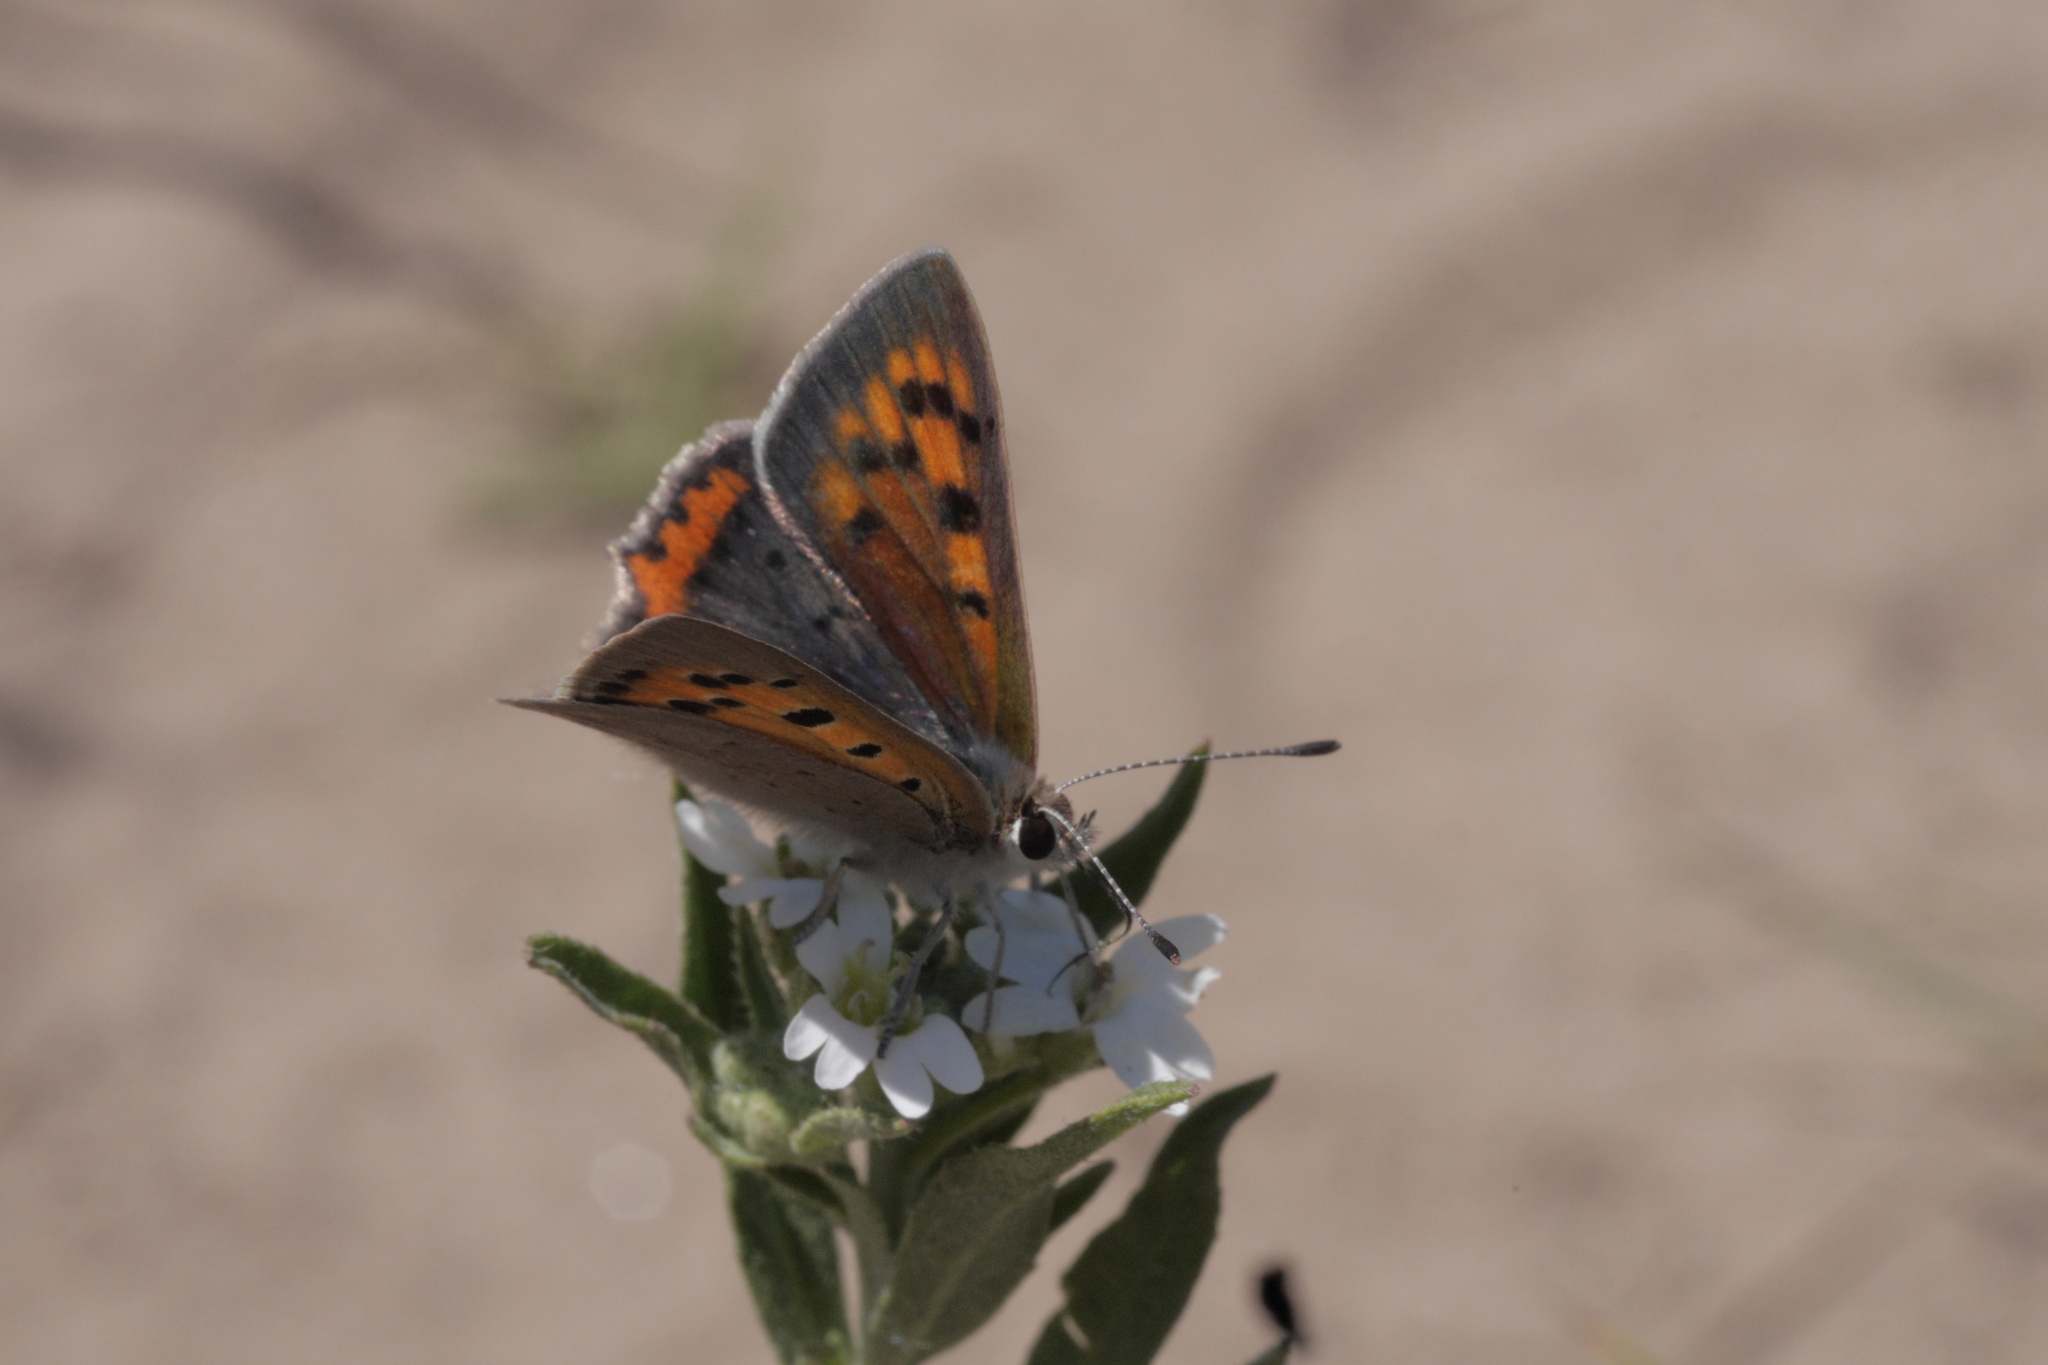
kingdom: Animalia
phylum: Arthropoda
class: Insecta
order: Lepidoptera
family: Lycaenidae
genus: Lycaena
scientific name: Lycaena phlaeas
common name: Small copper
